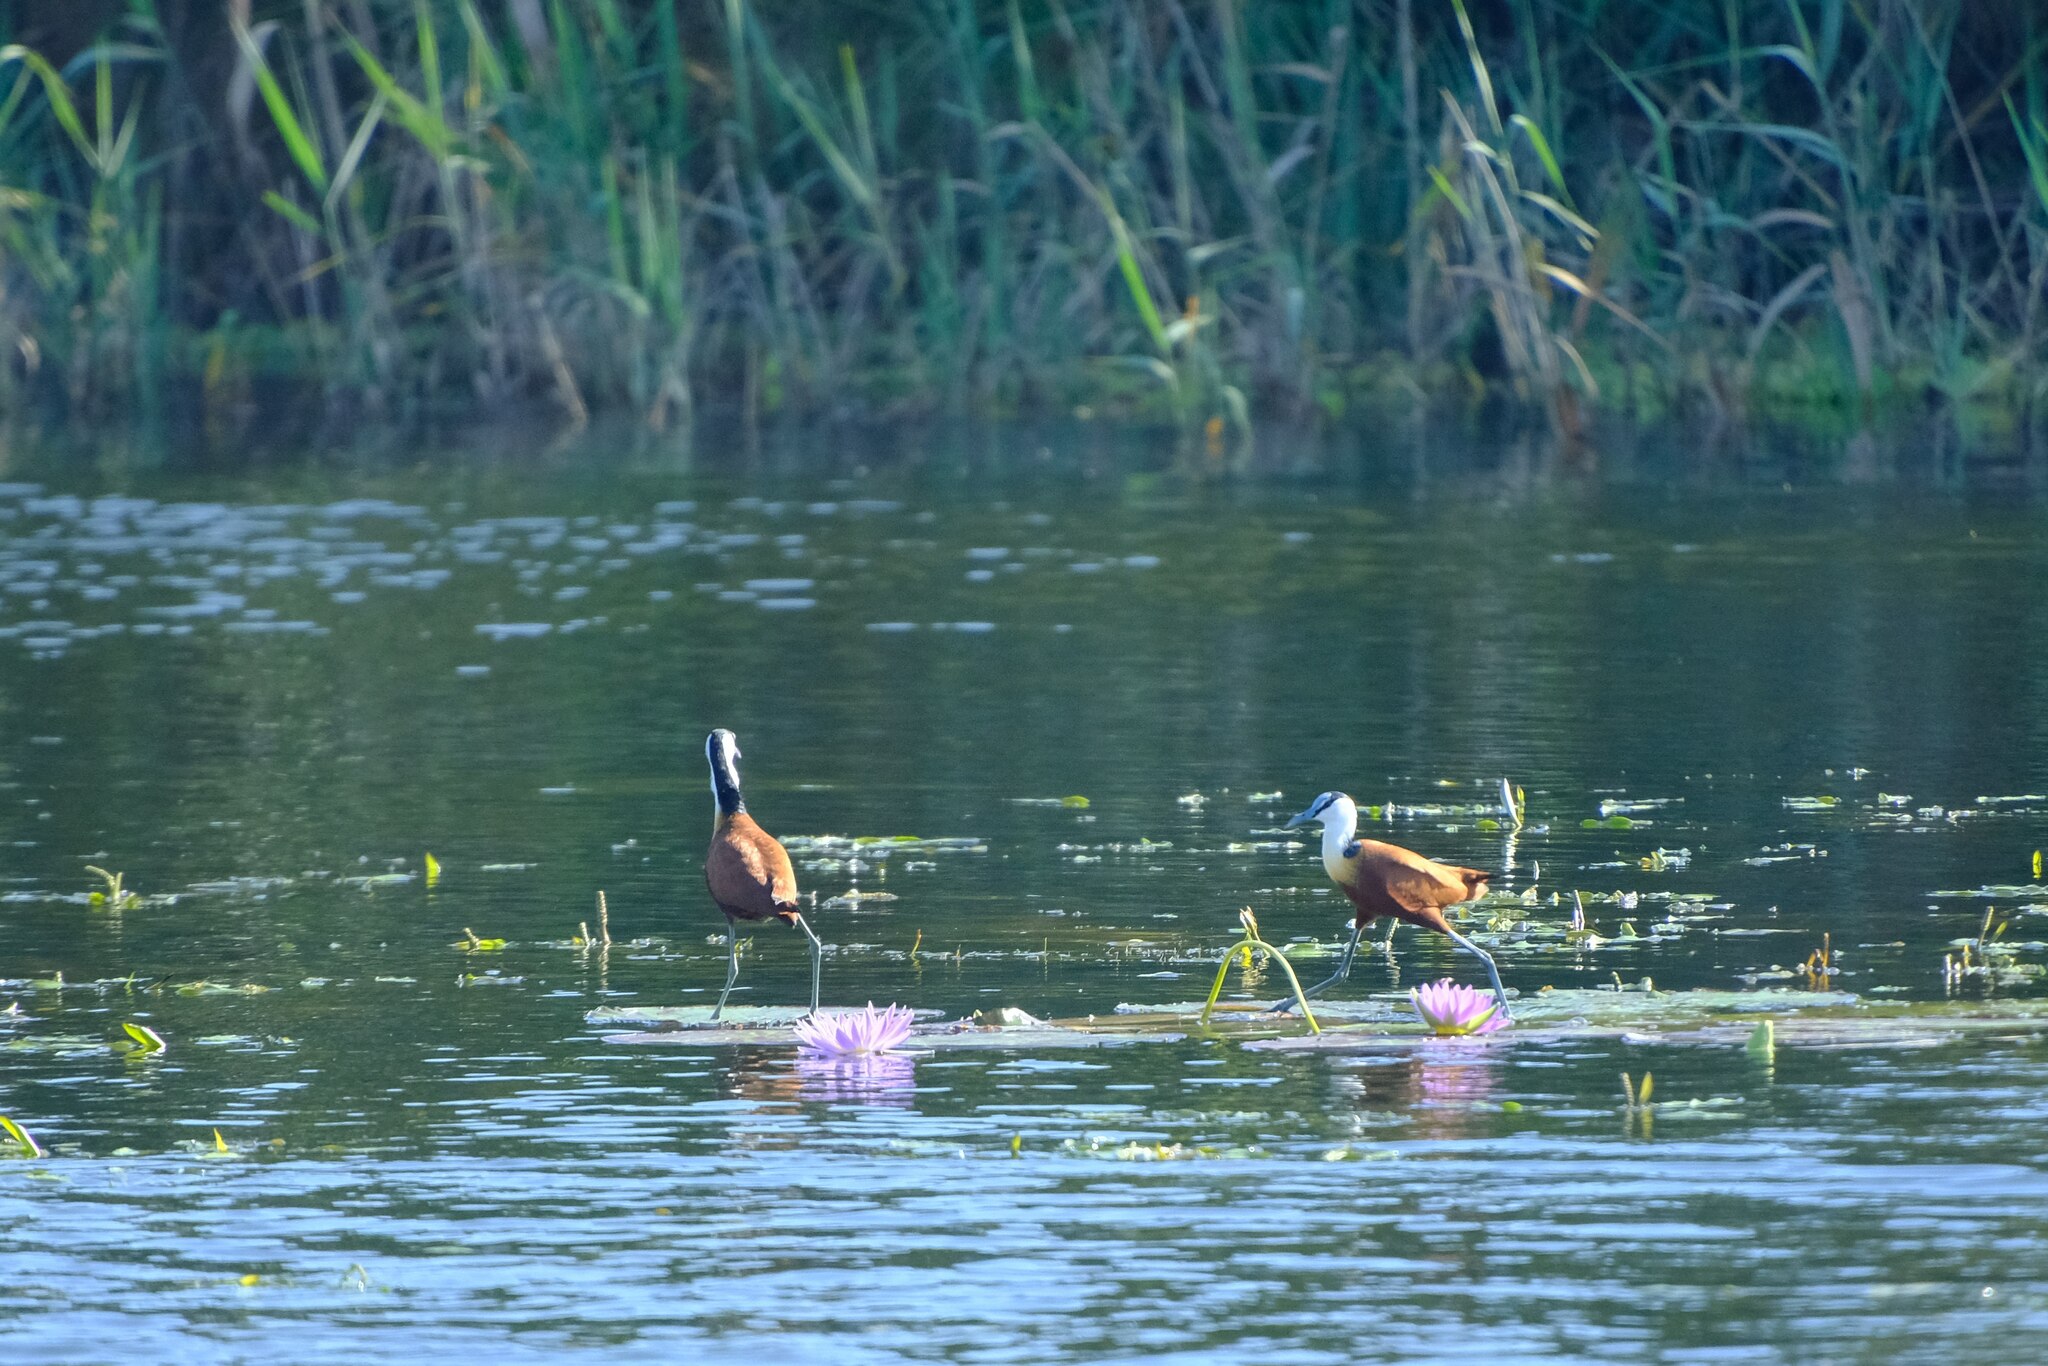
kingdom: Animalia
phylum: Chordata
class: Aves
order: Charadriiformes
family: Jacanidae
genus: Actophilornis
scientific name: Actophilornis africanus
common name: African jacana
